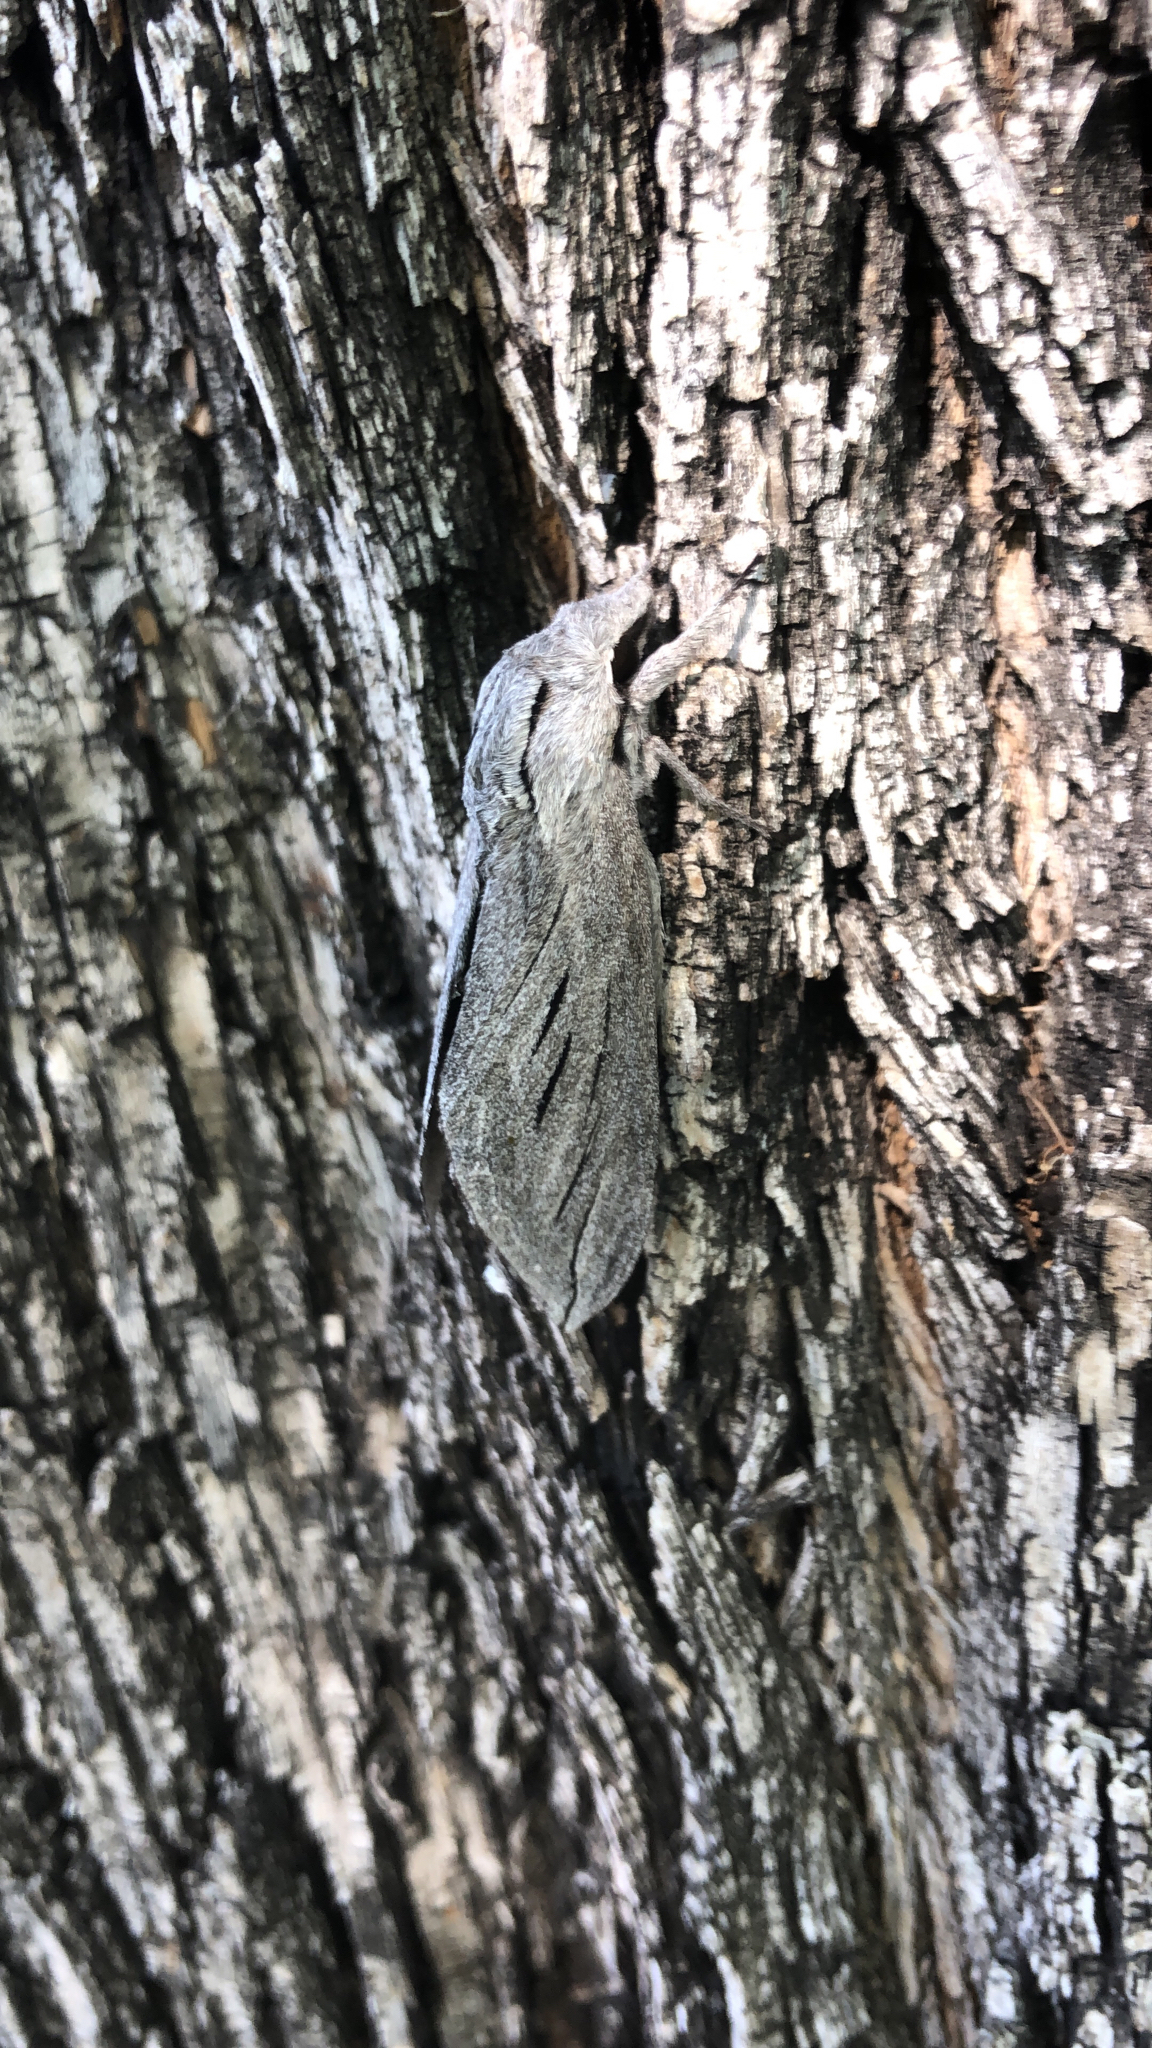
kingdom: Animalia
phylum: Arthropoda
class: Insecta
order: Lepidoptera
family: Sphingidae
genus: Sphinx
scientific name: Sphinx chersis
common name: Great ash sphinx
